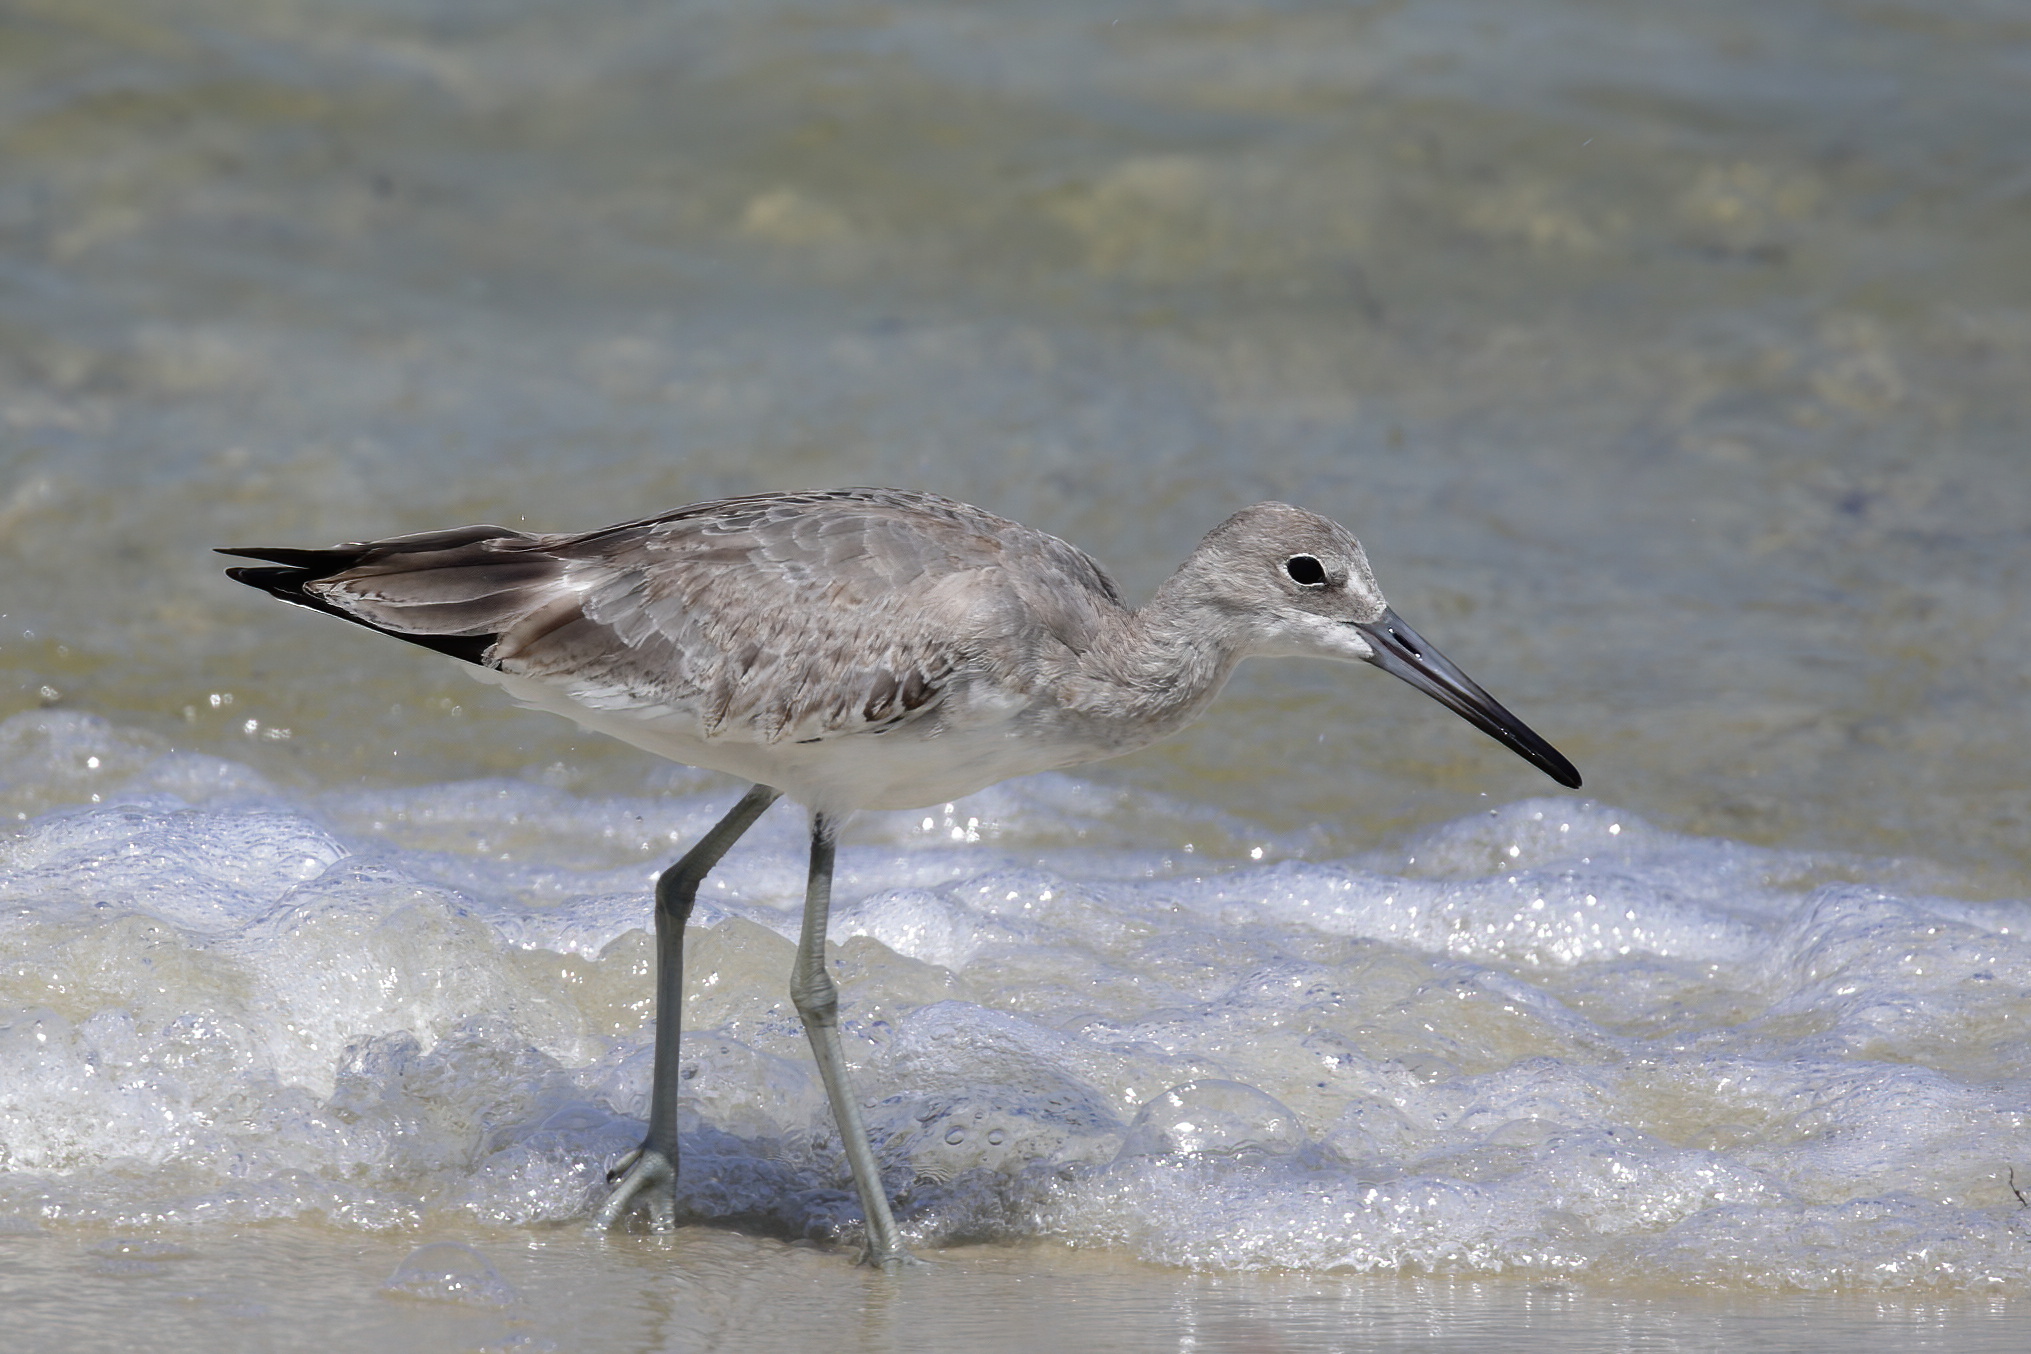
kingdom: Animalia
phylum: Chordata
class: Aves
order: Charadriiformes
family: Scolopacidae
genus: Tringa
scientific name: Tringa semipalmata
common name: Willet
